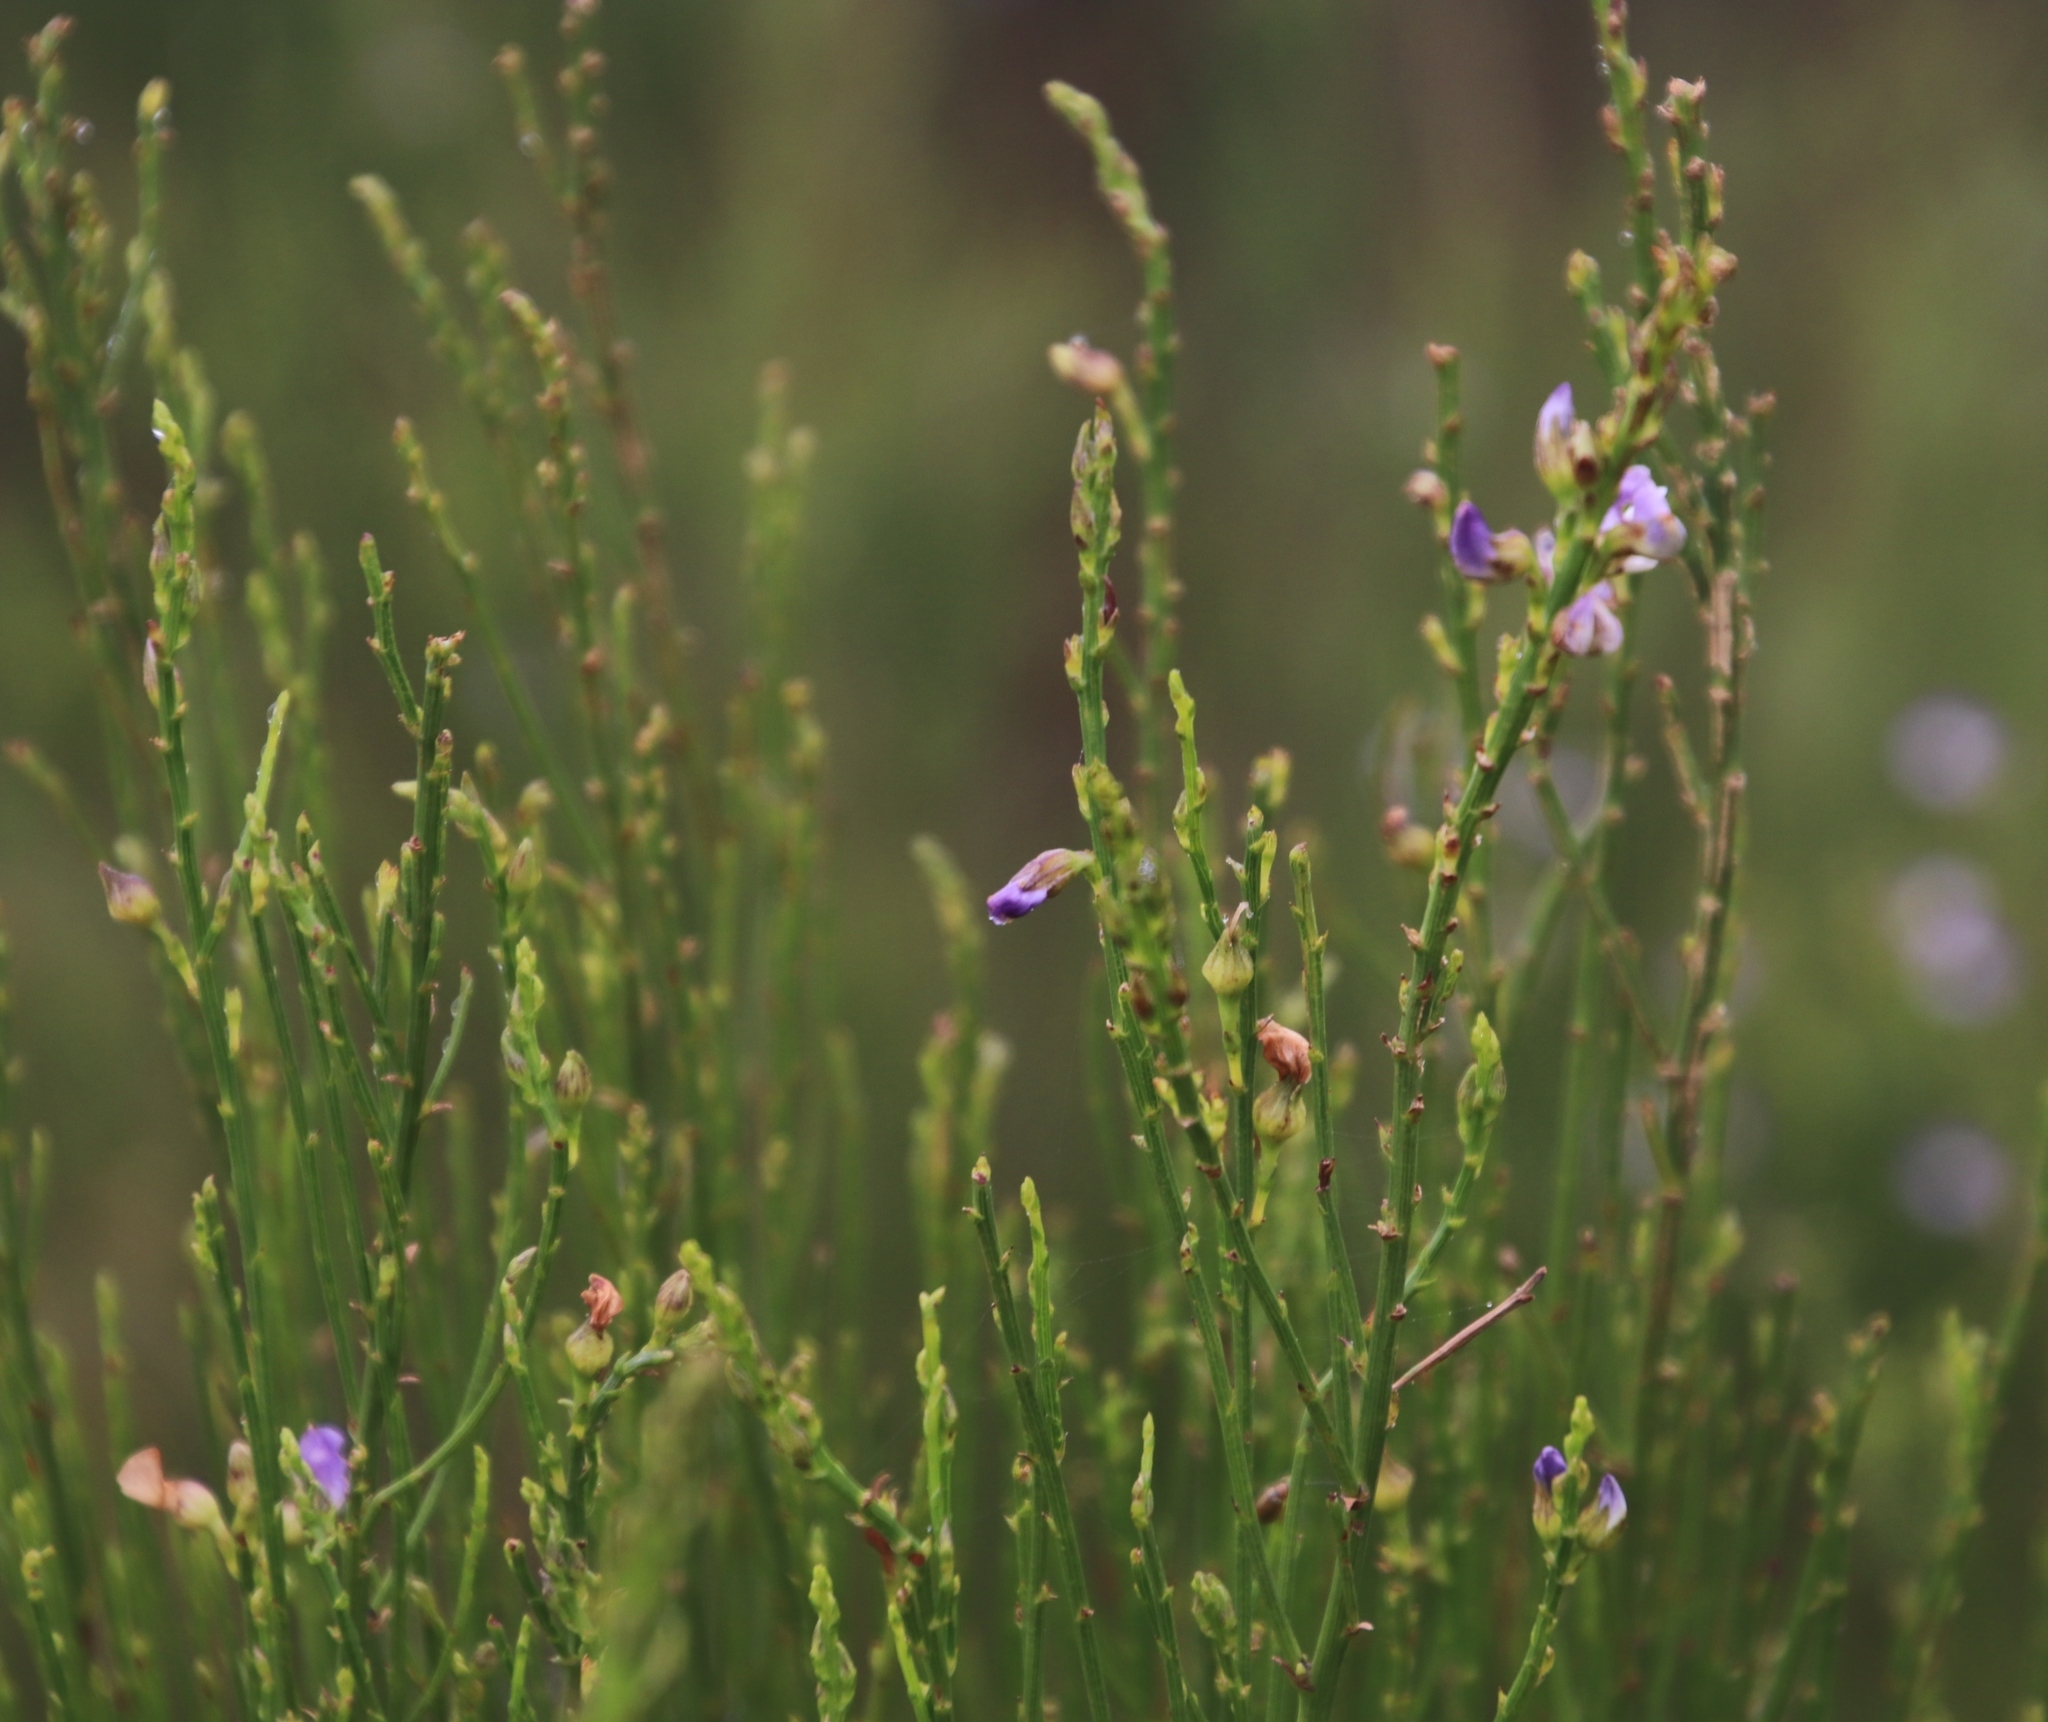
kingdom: Plantae
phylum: Tracheophyta
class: Magnoliopsida
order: Fabales
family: Fabaceae
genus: Psoralea
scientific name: Psoralea usitata
